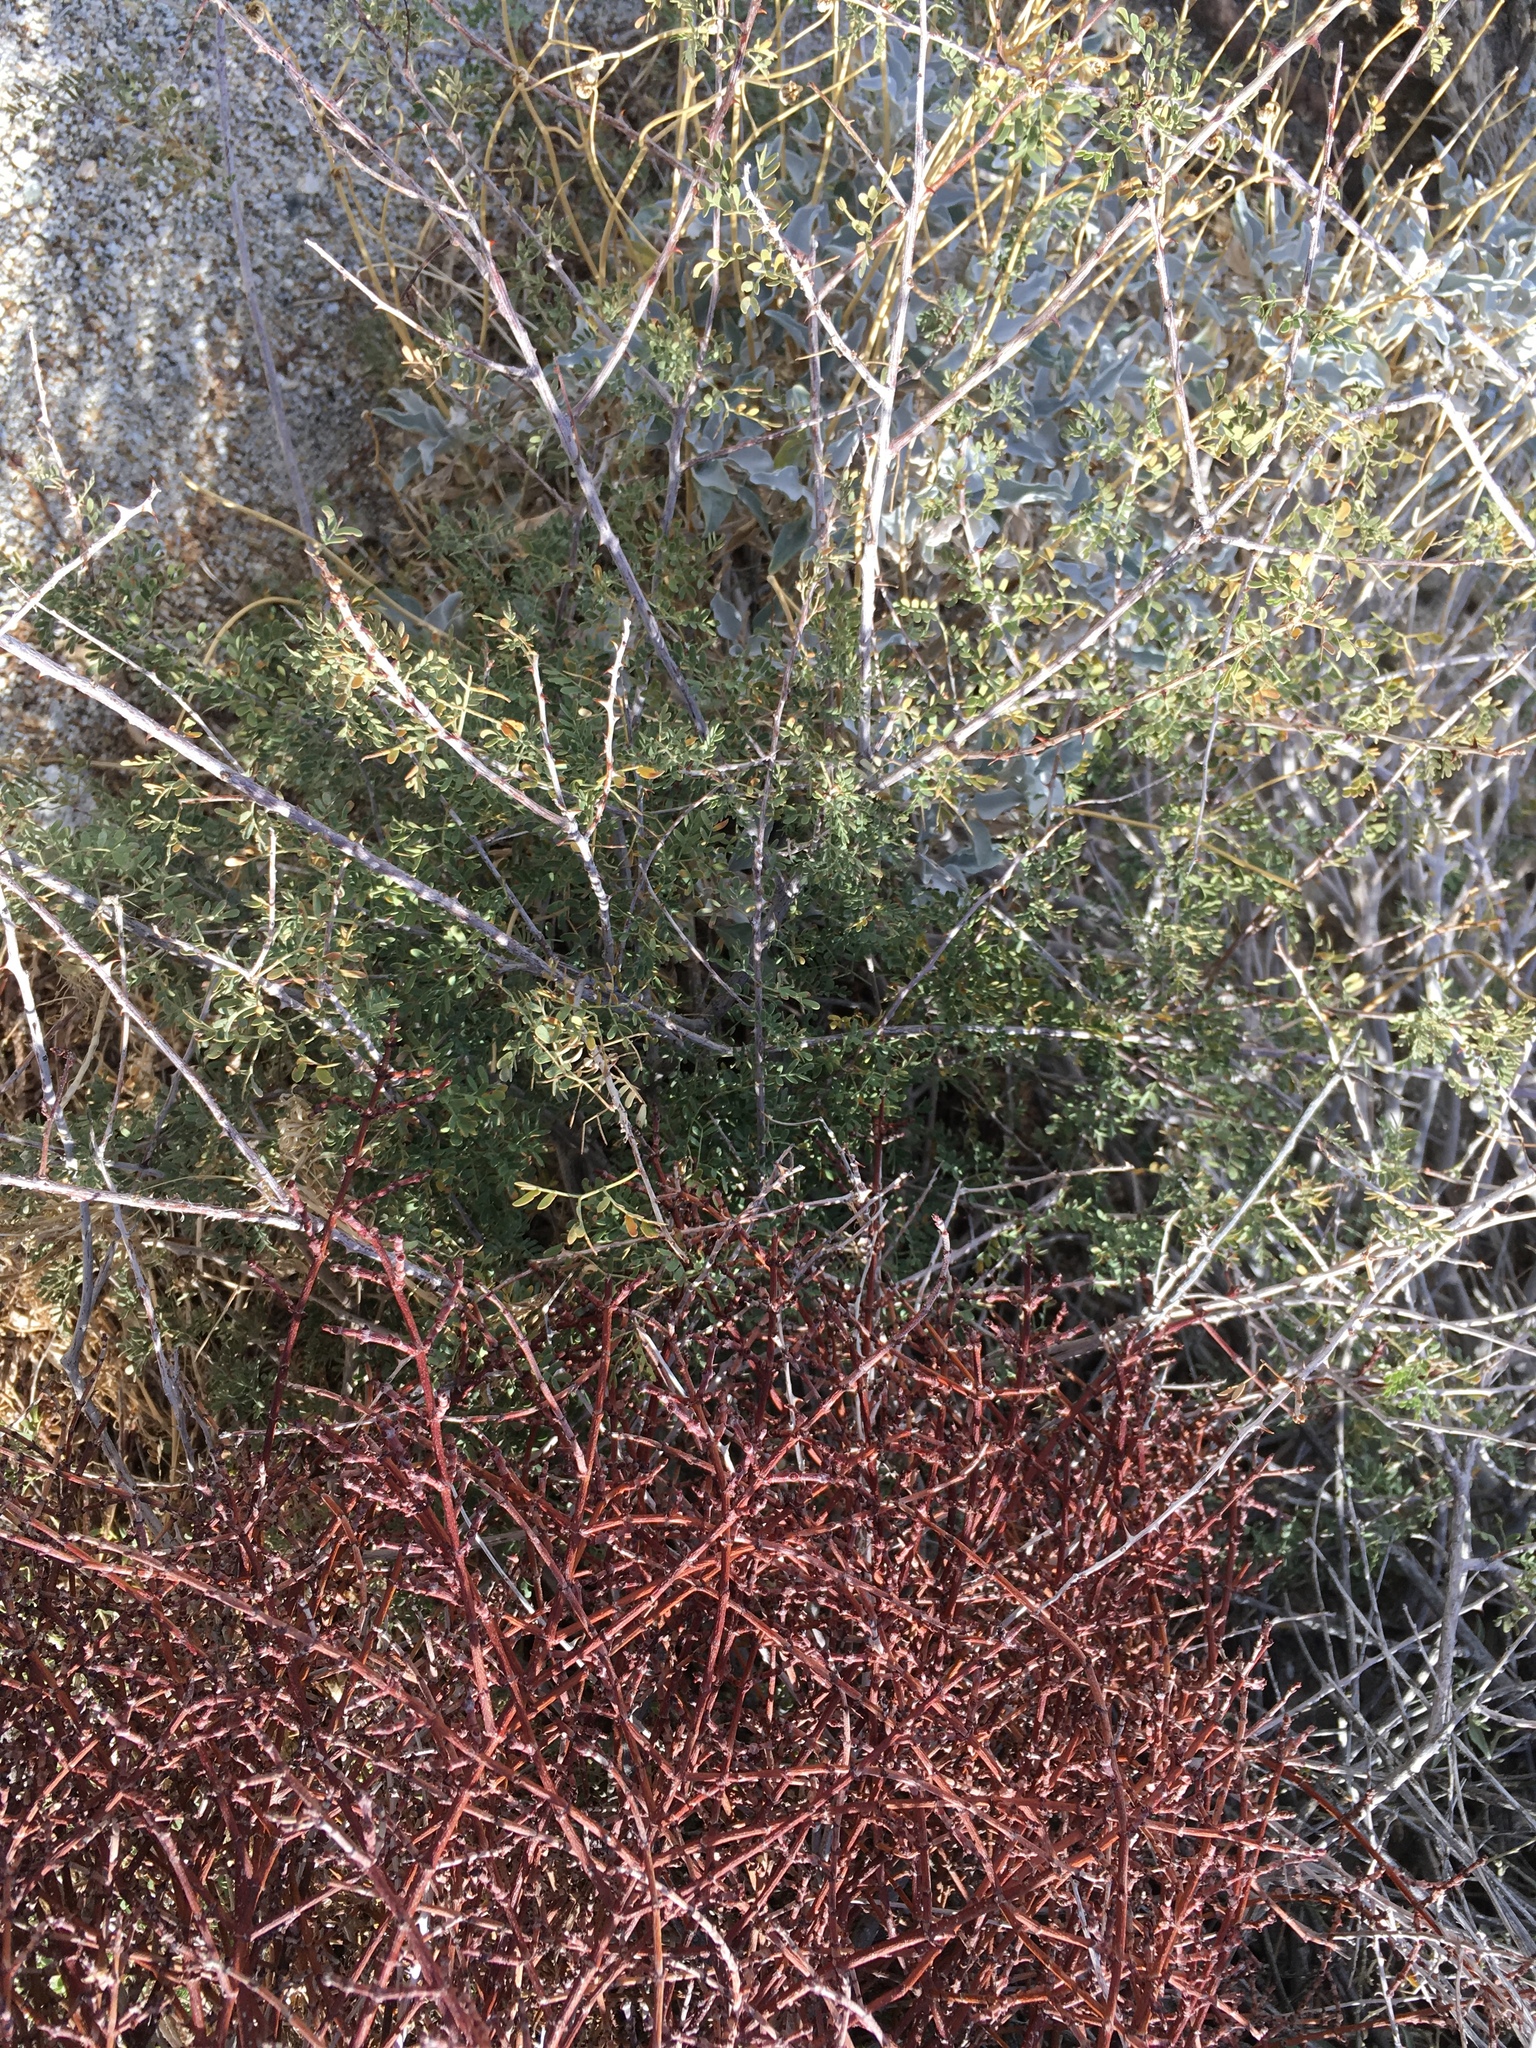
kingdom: Plantae
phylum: Tracheophyta
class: Magnoliopsida
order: Santalales
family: Viscaceae
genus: Phoradendron
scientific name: Phoradendron californicum
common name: Acacia mistletoe
